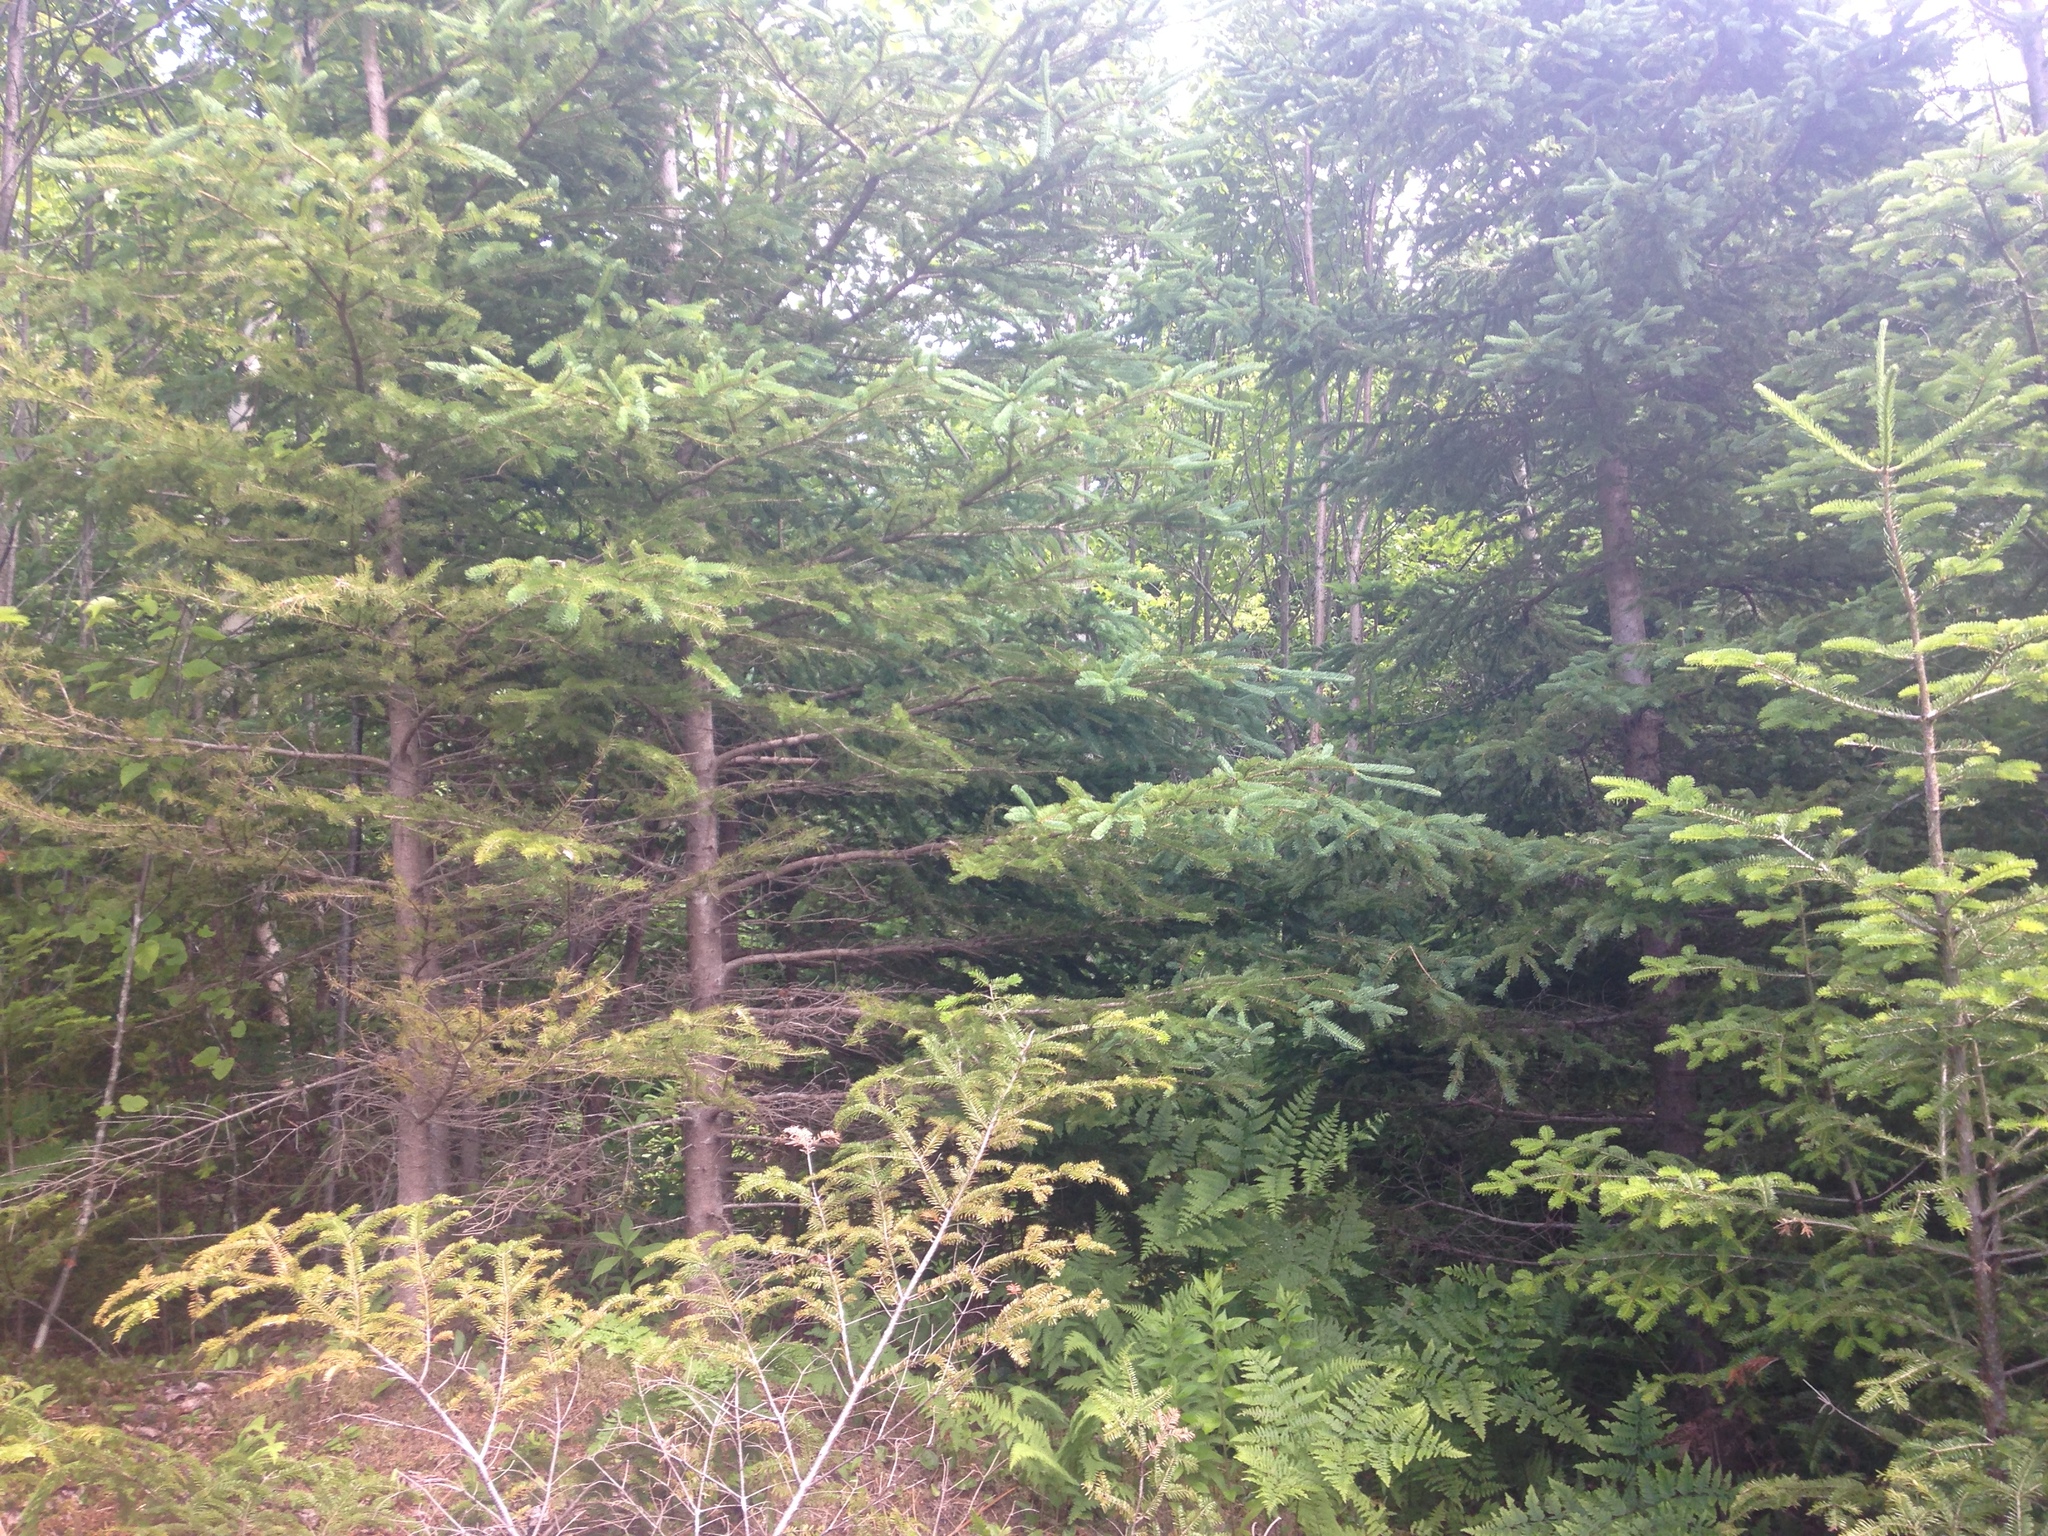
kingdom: Plantae
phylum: Tracheophyta
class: Pinopsida
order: Pinales
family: Pinaceae
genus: Abies
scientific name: Abies balsamea
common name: Balsam fir
